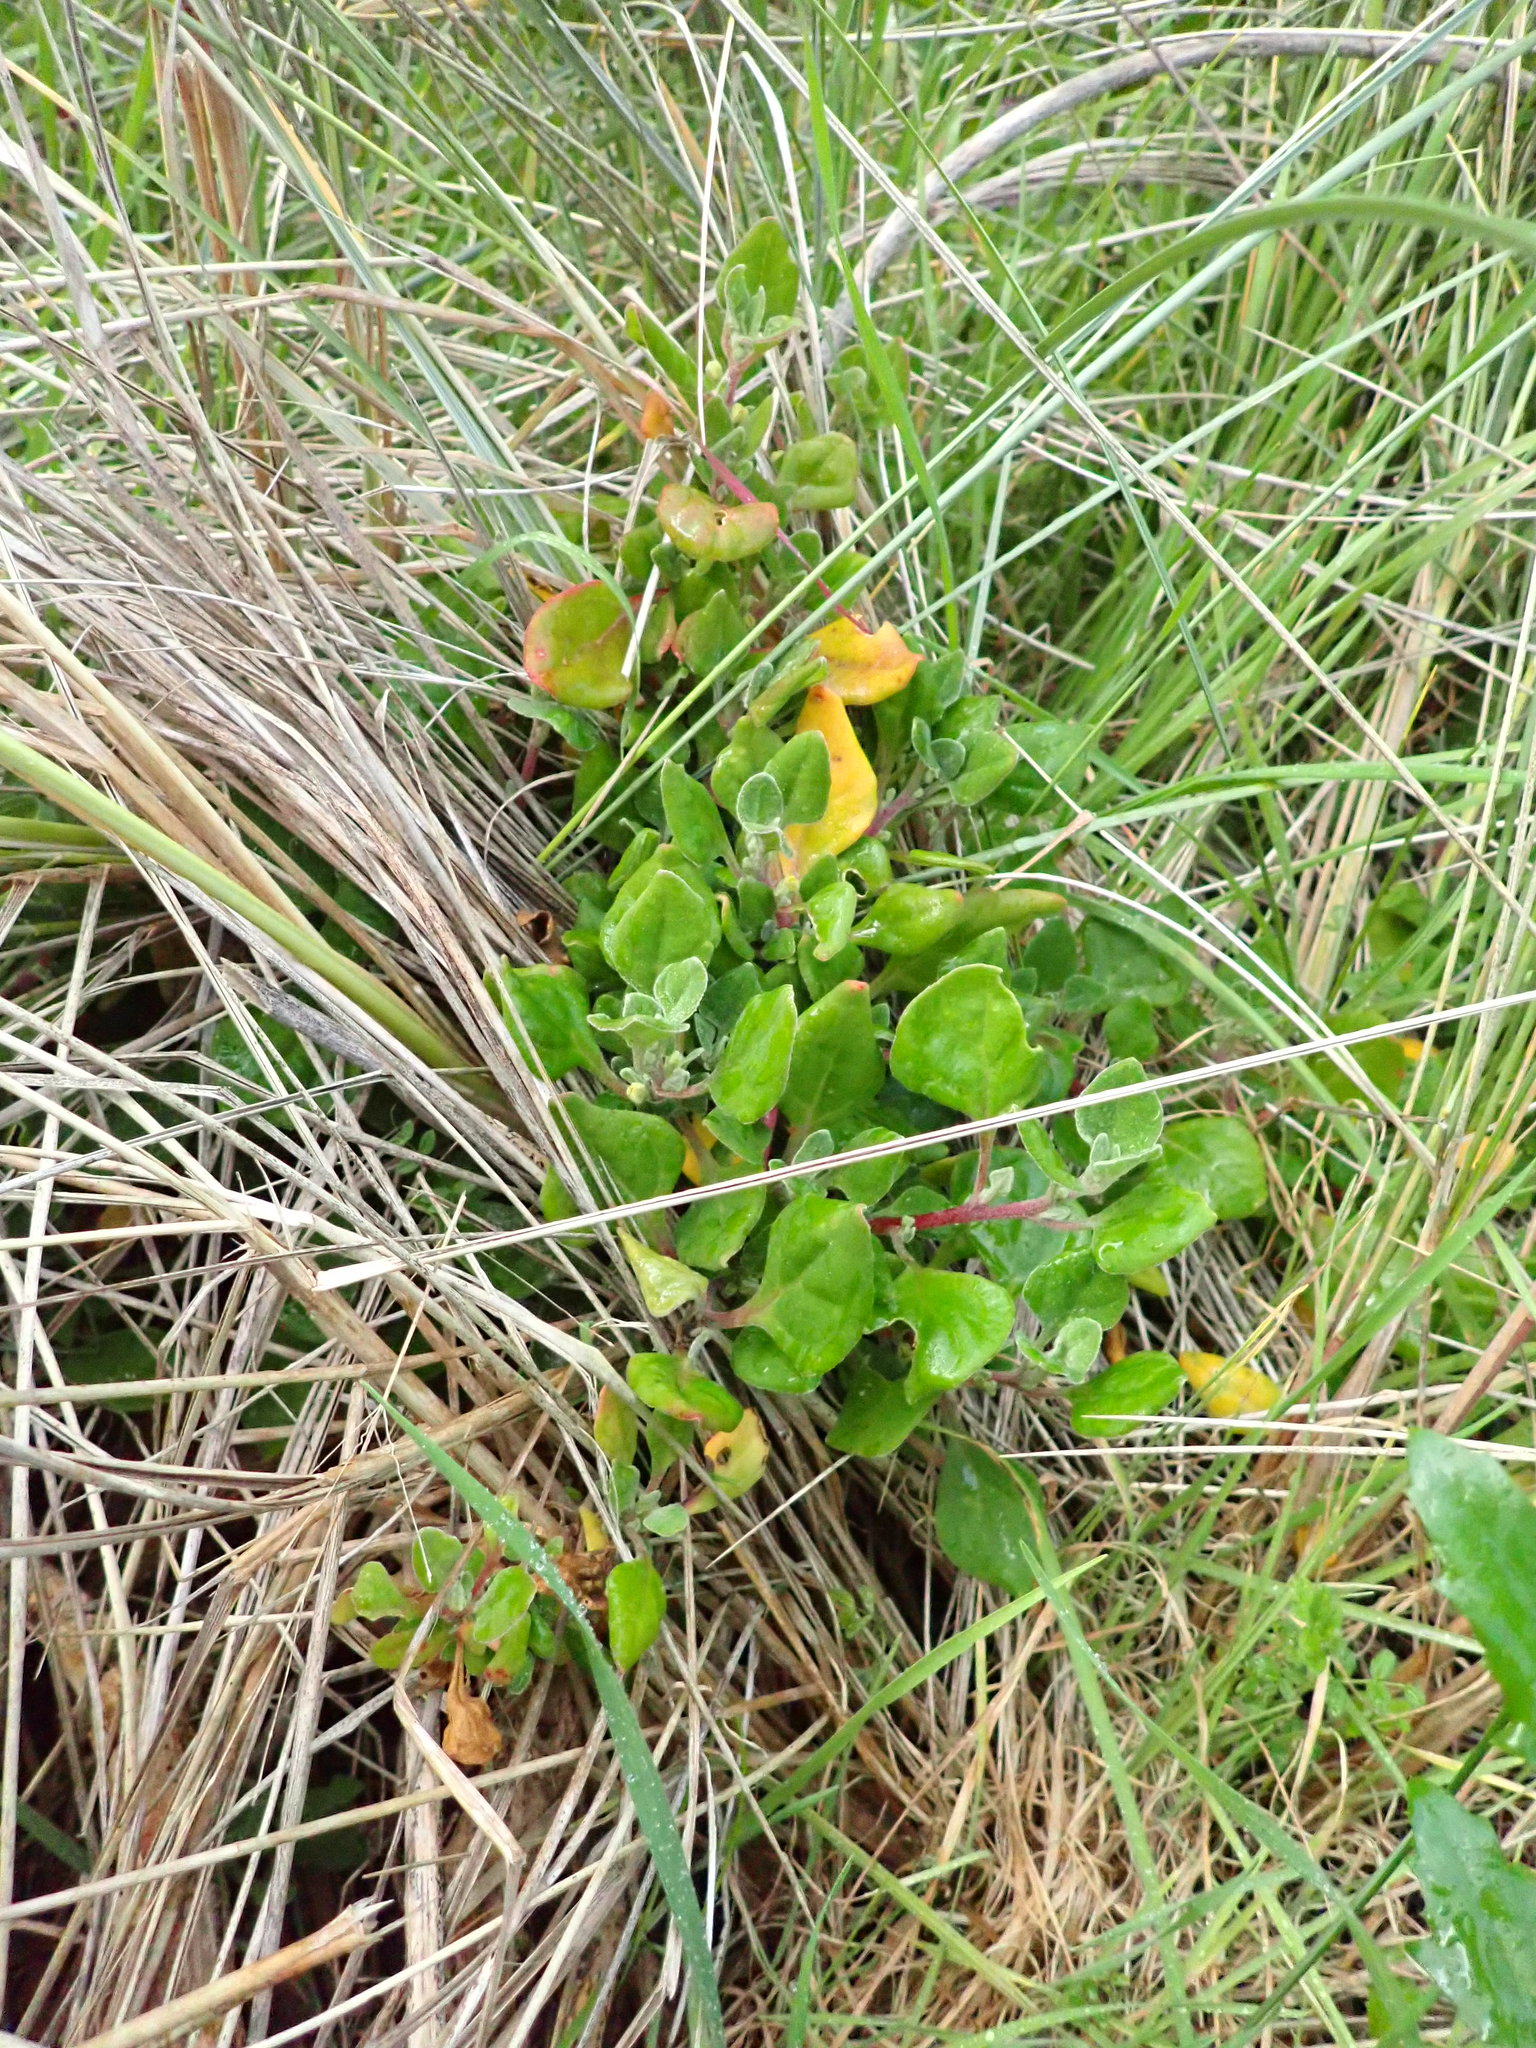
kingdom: Plantae
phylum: Tracheophyta
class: Magnoliopsida
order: Caryophyllales
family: Aizoaceae
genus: Tetragonia
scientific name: Tetragonia implexicoma
